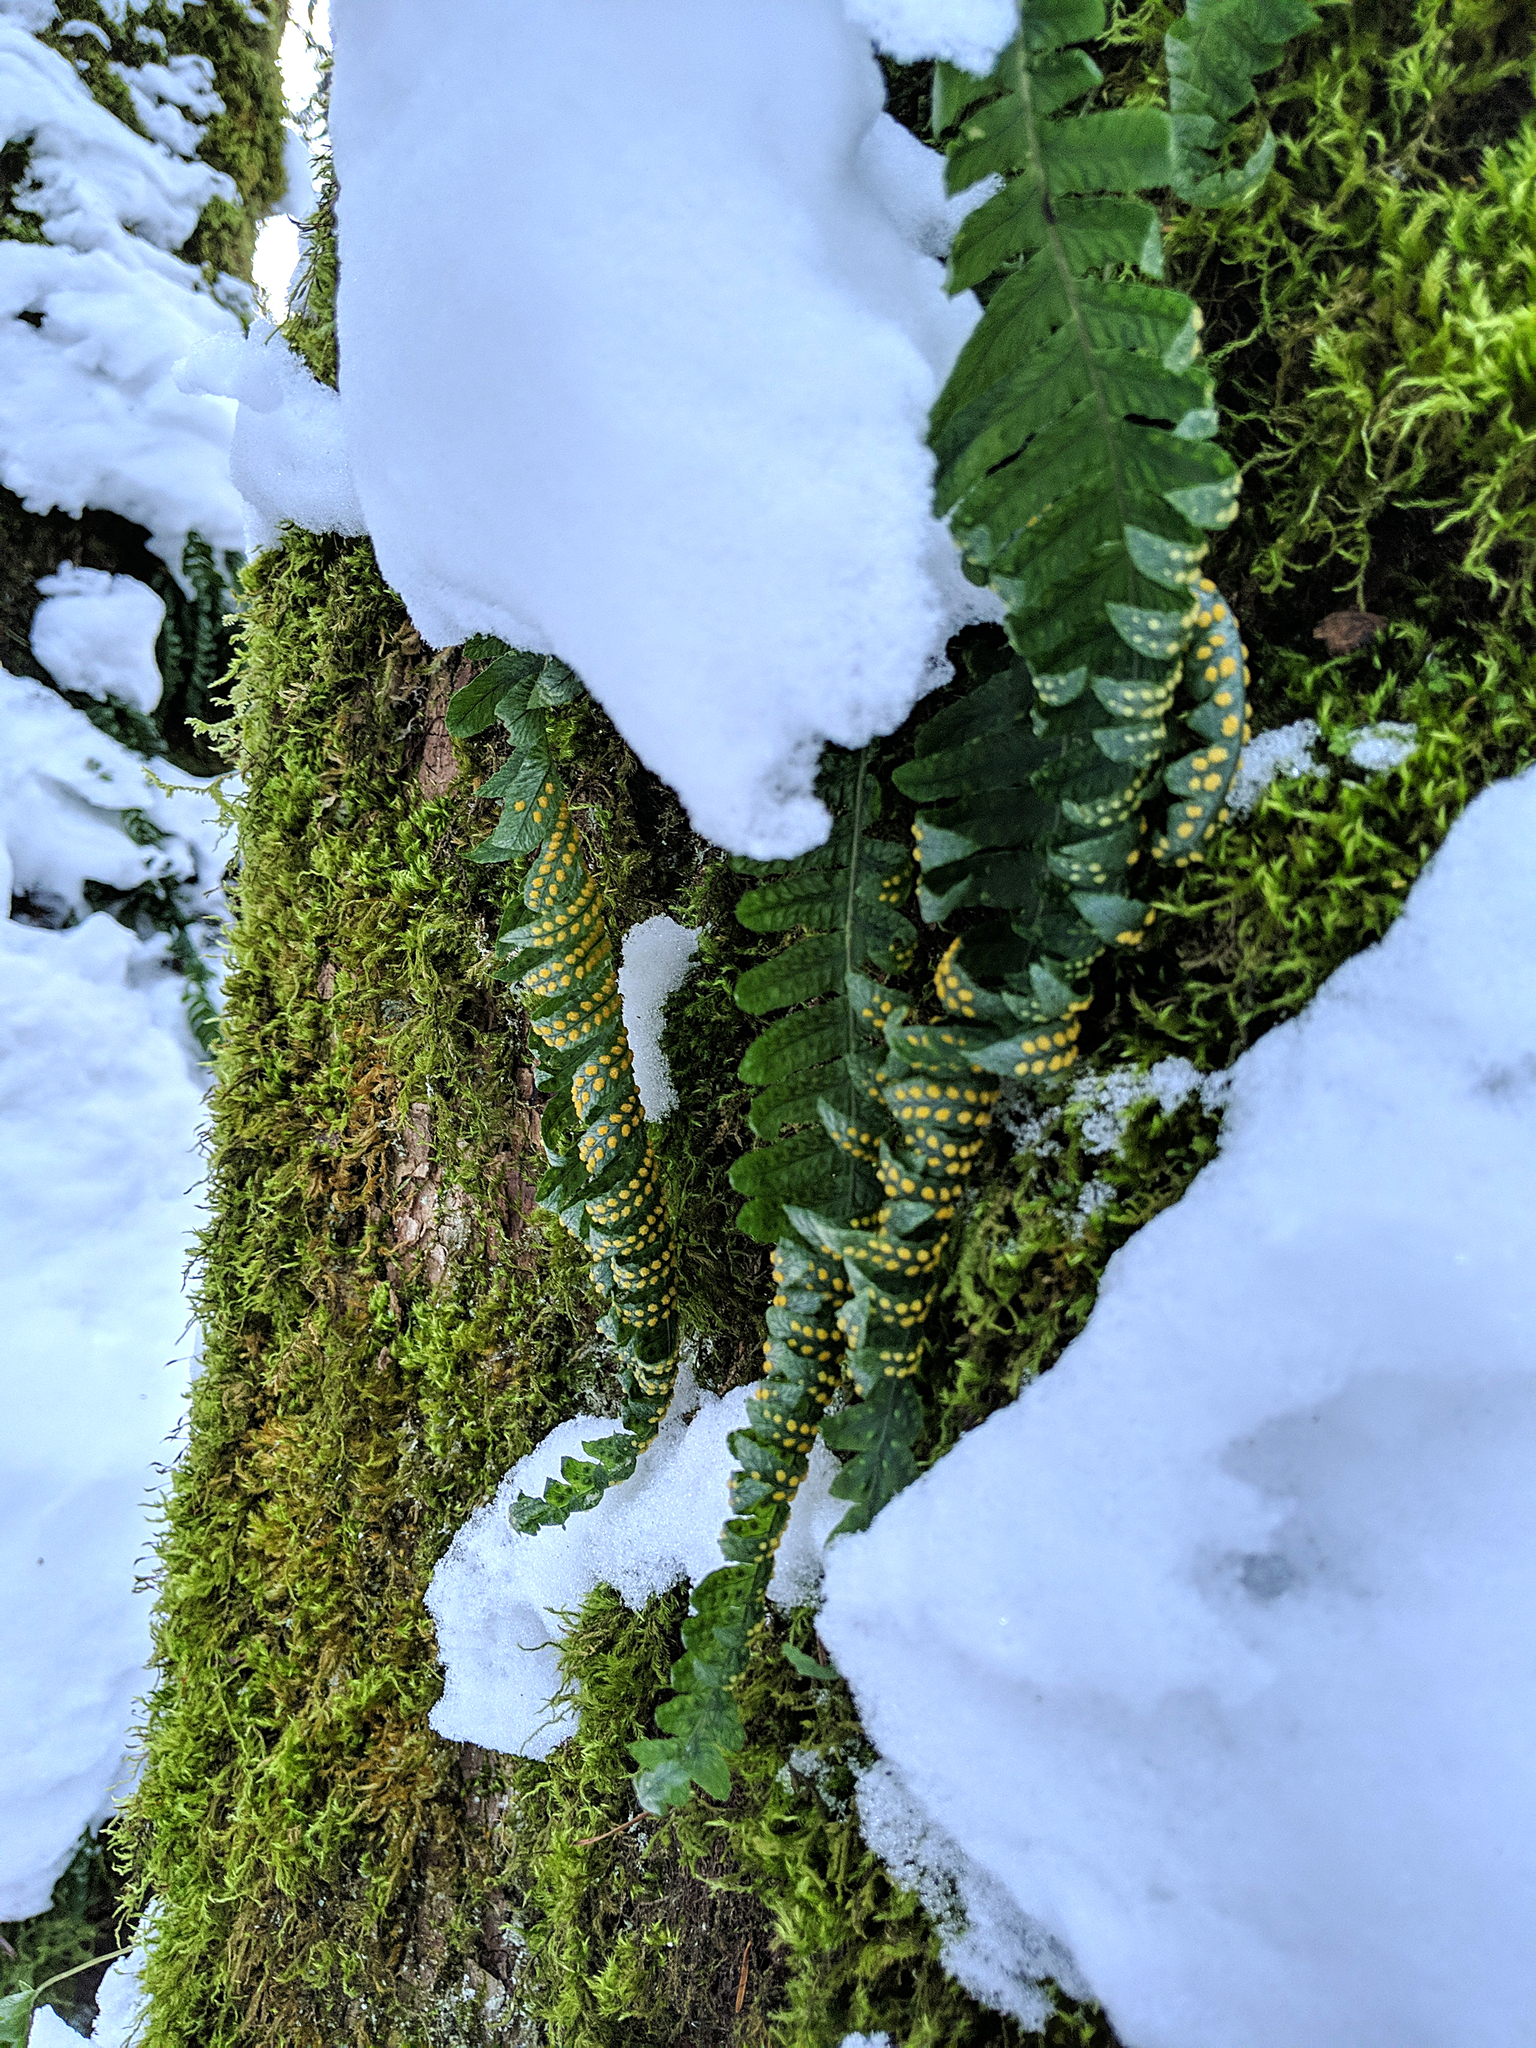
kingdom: Plantae
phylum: Tracheophyta
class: Polypodiopsida
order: Polypodiales
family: Polypodiaceae
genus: Polypodium
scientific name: Polypodium glycyrrhiza
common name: Licorice fern
